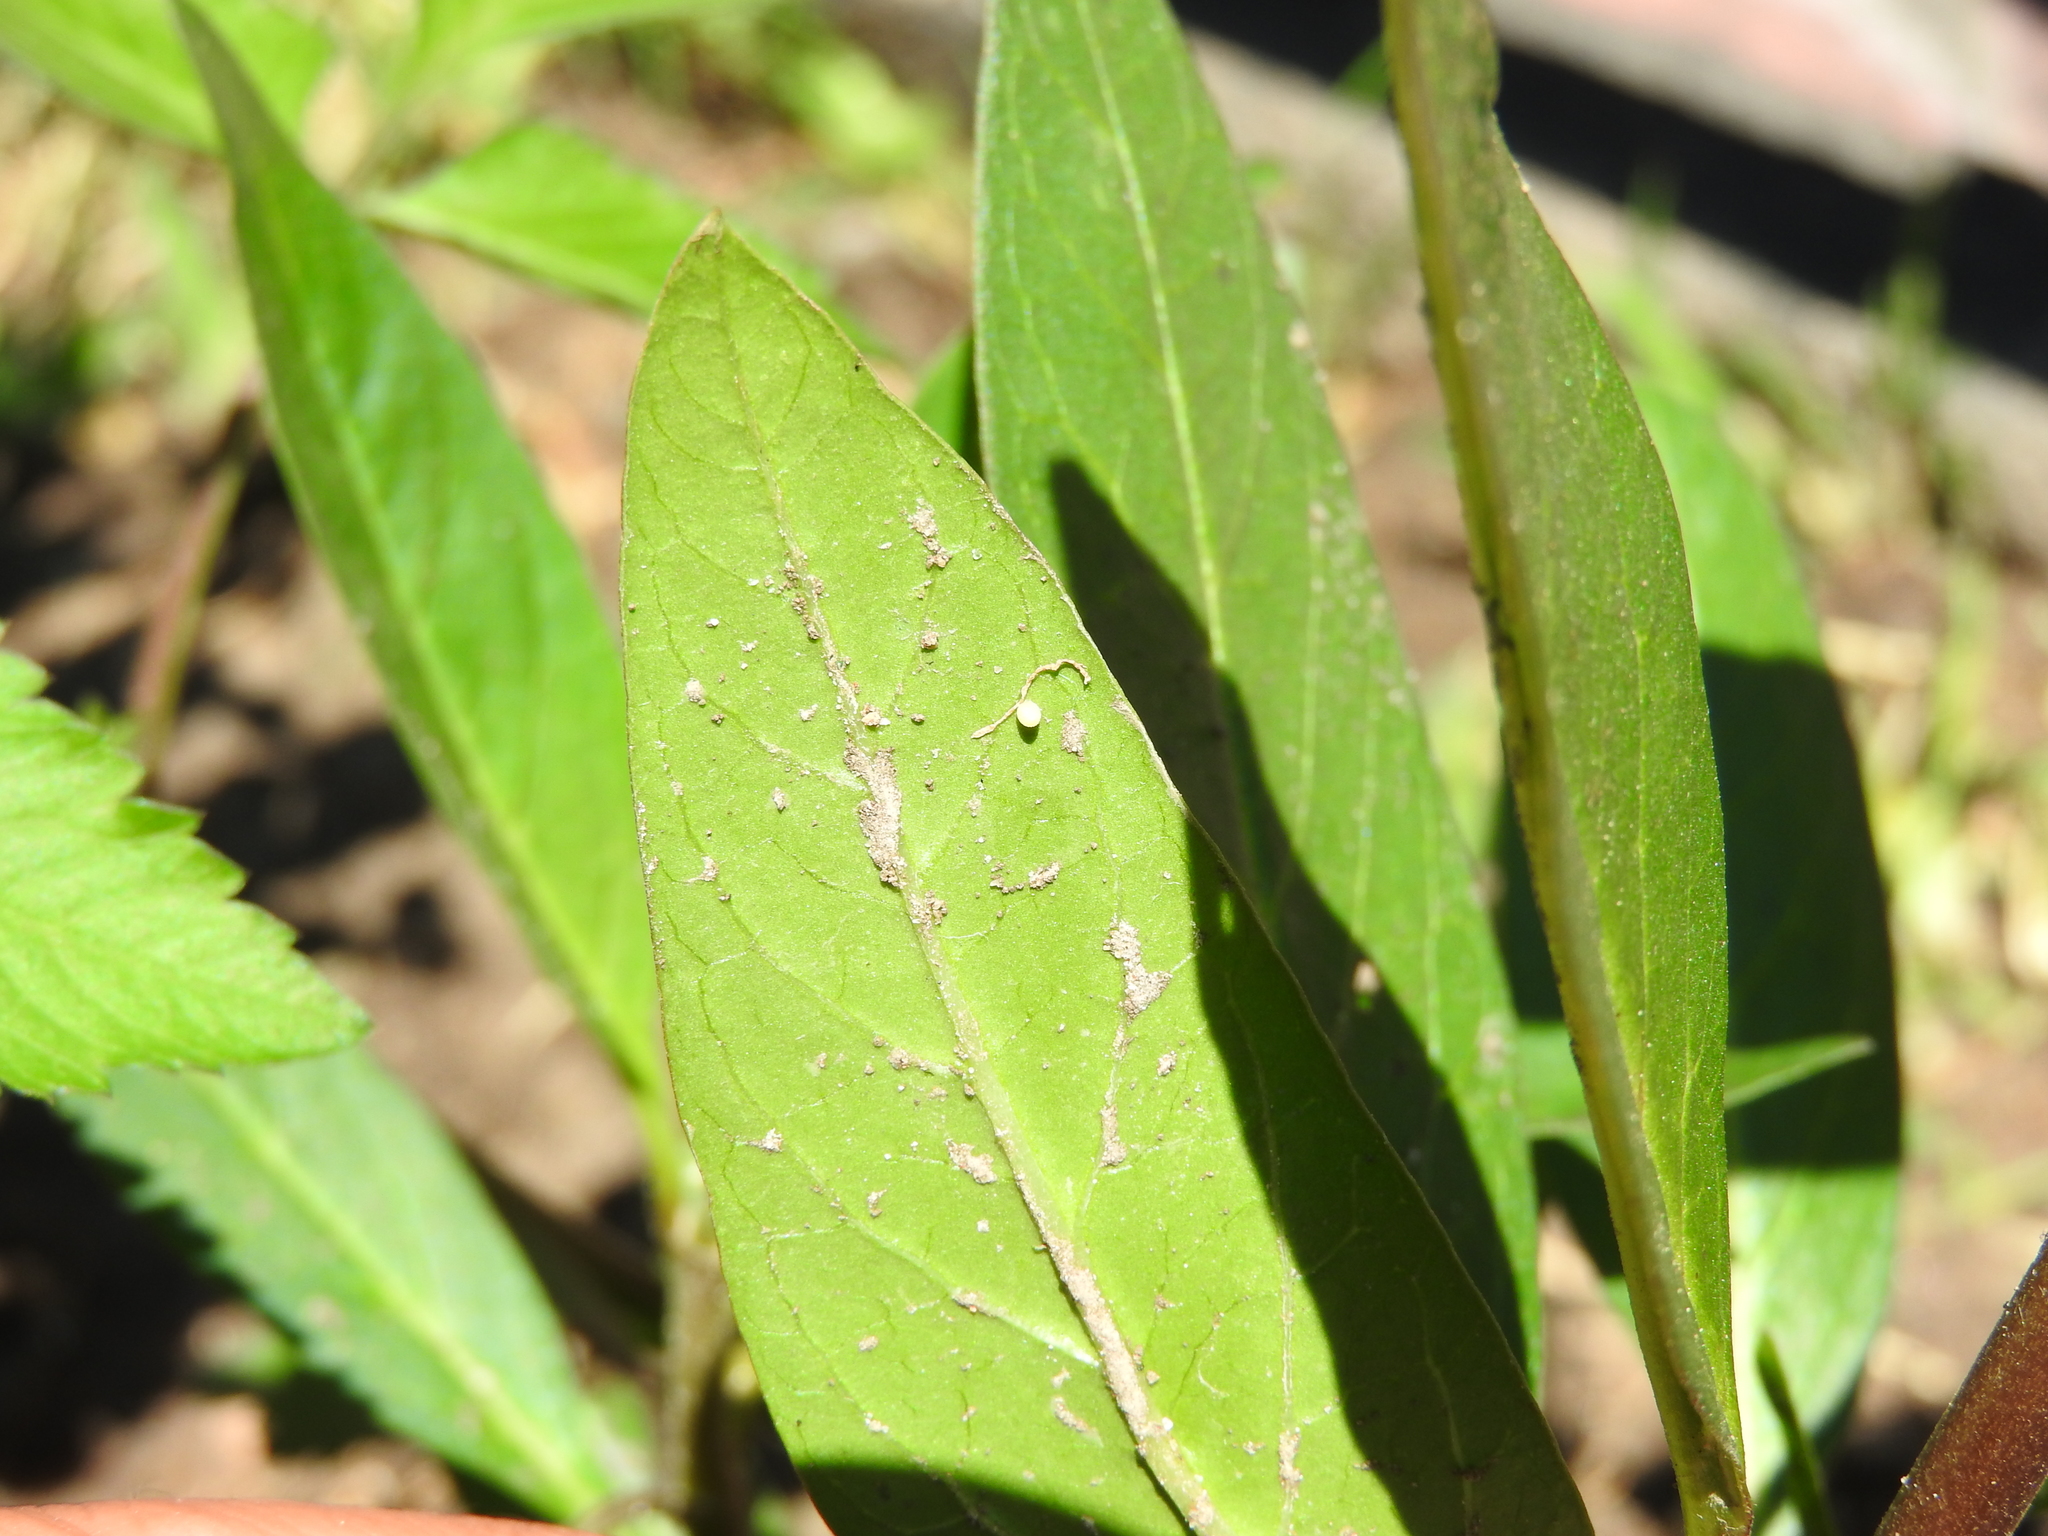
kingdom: Animalia
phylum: Arthropoda
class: Insecta
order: Lepidoptera
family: Nymphalidae
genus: Danaus
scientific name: Danaus plexippus
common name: Monarch
